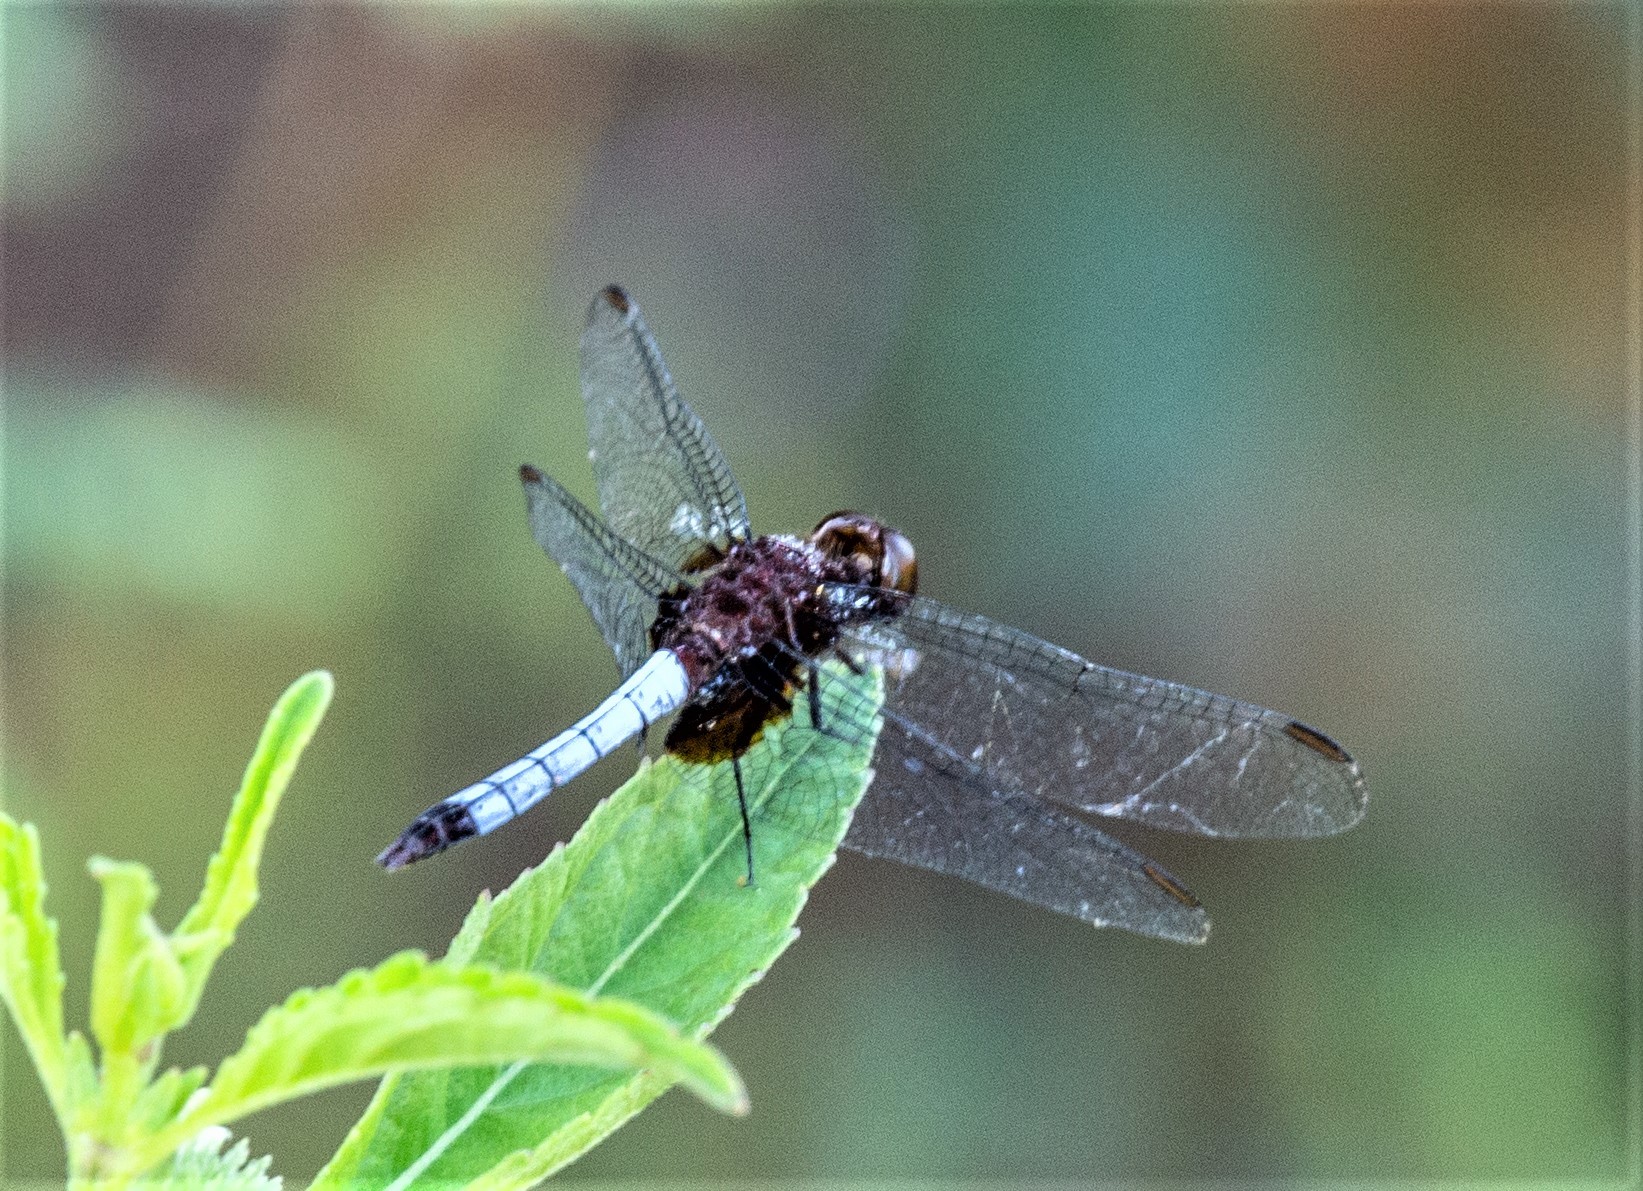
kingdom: Animalia
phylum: Arthropoda
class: Insecta
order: Odonata
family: Libellulidae
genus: Erythrodiplax
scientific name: Erythrodiplax unimaculata
